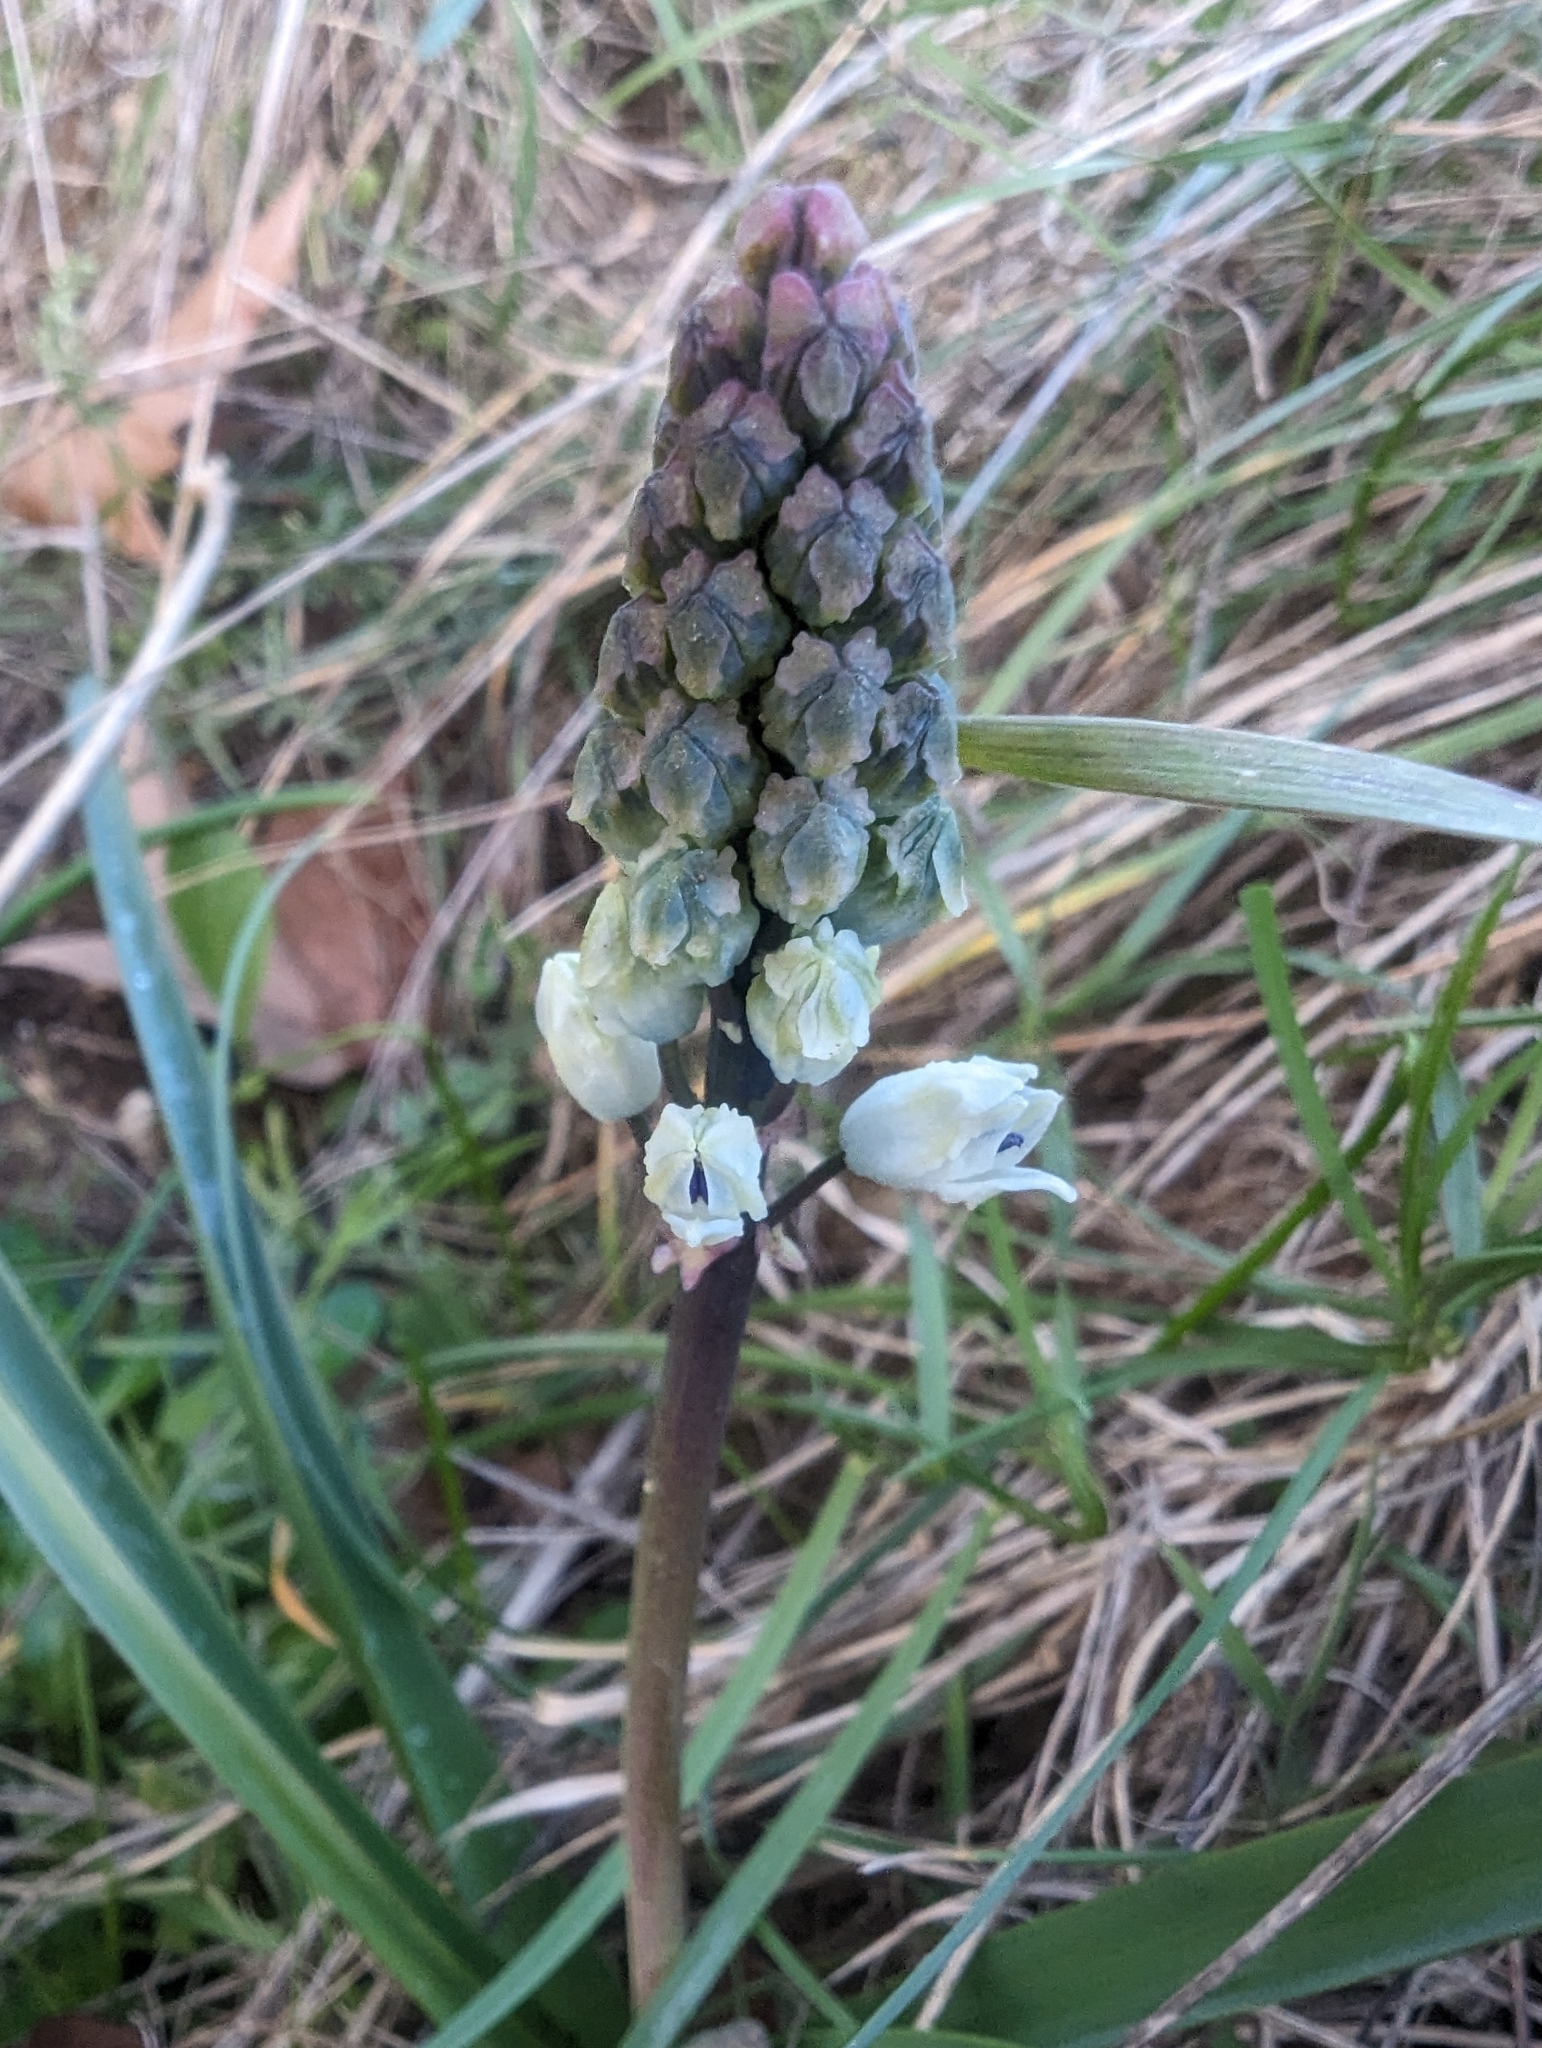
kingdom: Plantae
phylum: Tracheophyta
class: Liliopsida
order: Asparagales
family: Asparagaceae
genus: Bellevalia
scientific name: Bellevalia romana
